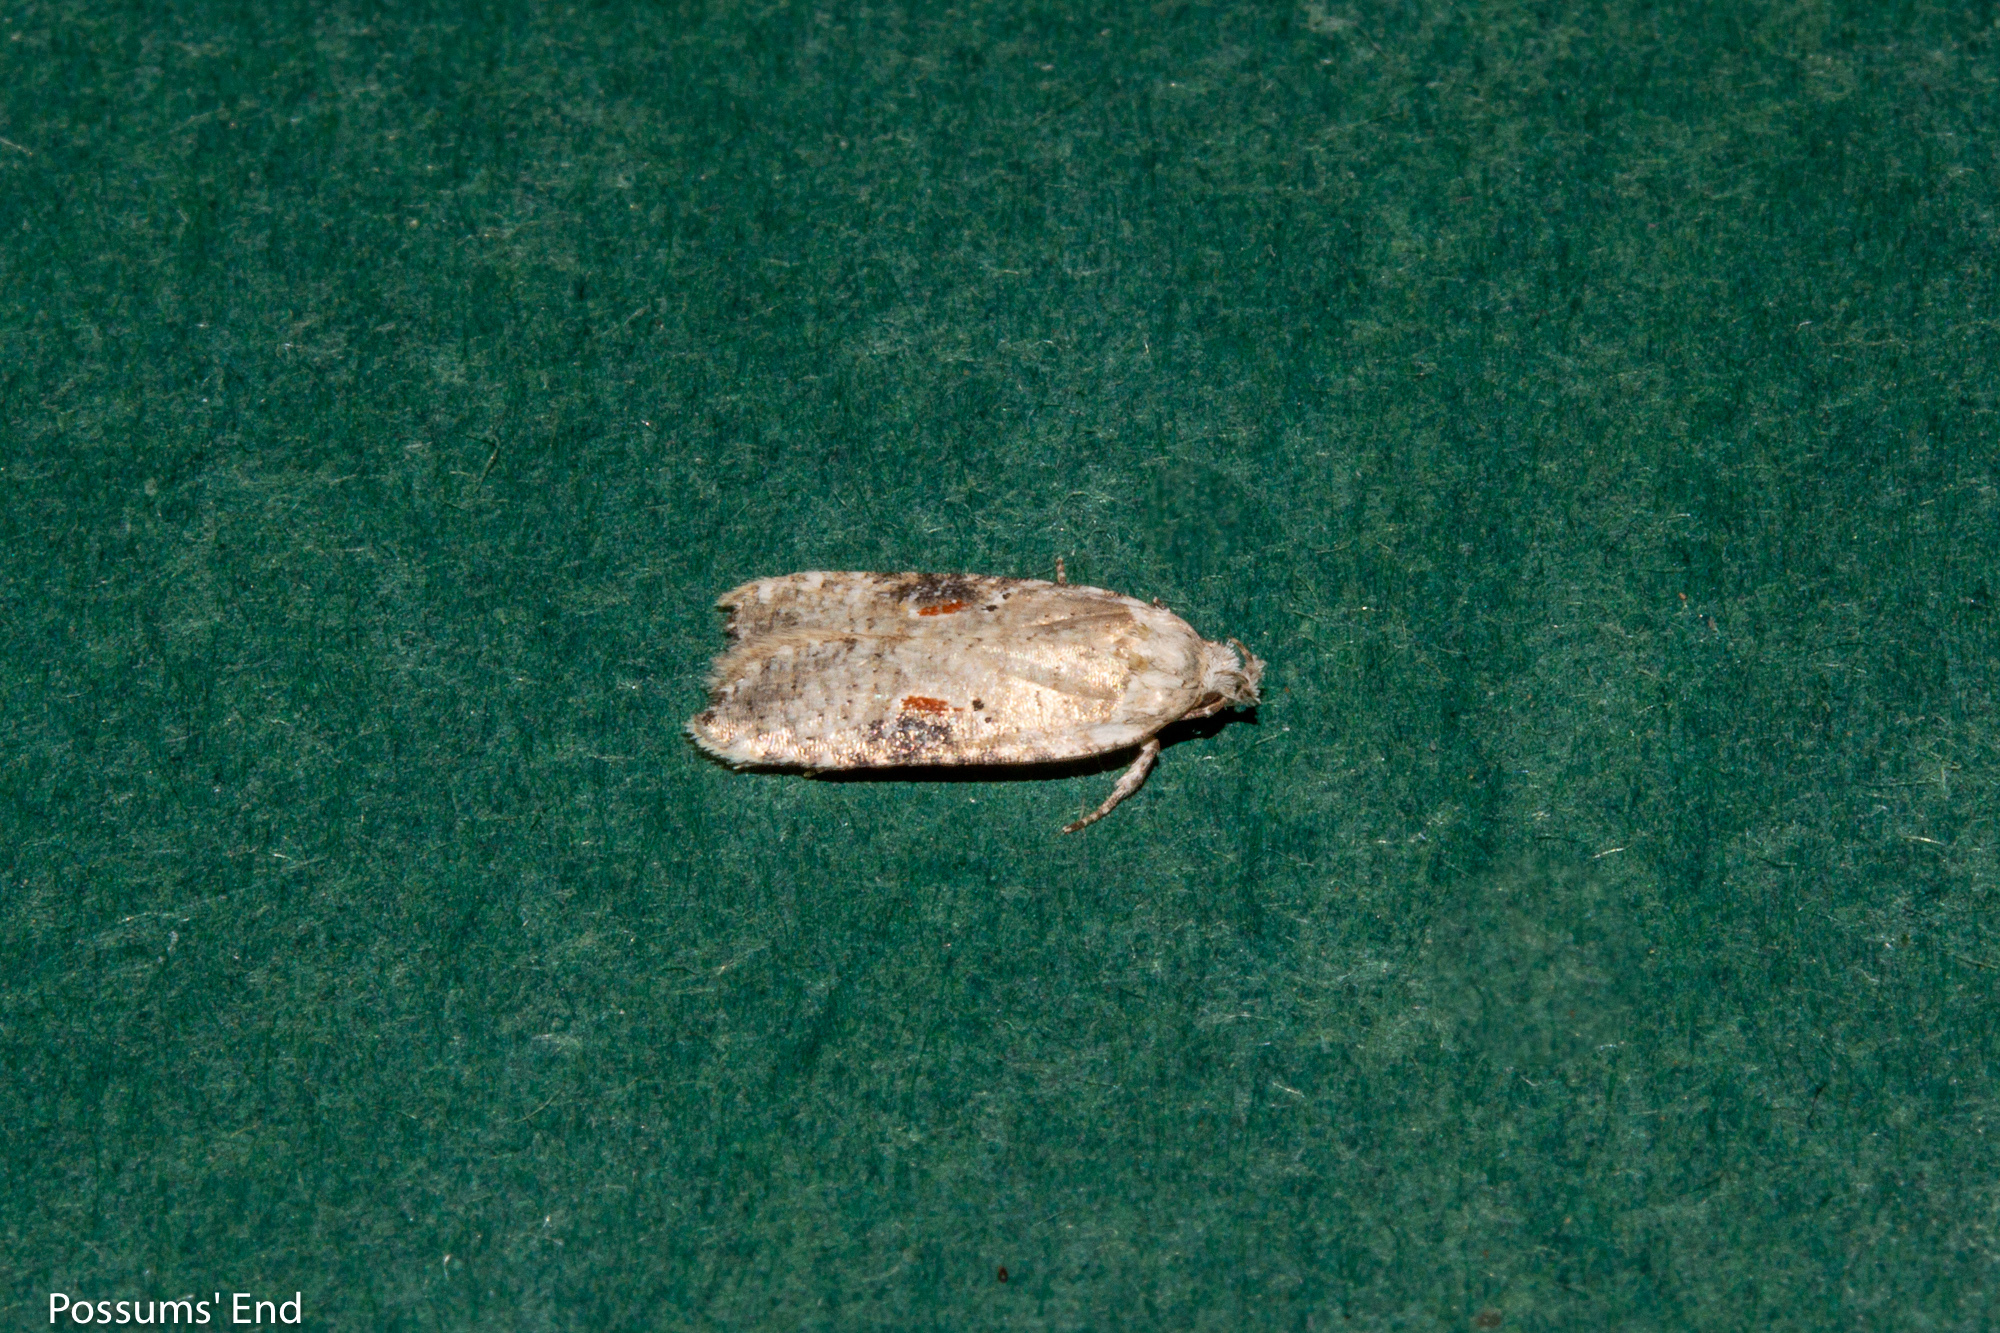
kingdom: Animalia
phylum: Arthropoda
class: Insecta
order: Lepidoptera
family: Depressariidae
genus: Agonopterix
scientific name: Agonopterix alstroemeriana
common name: Moth
